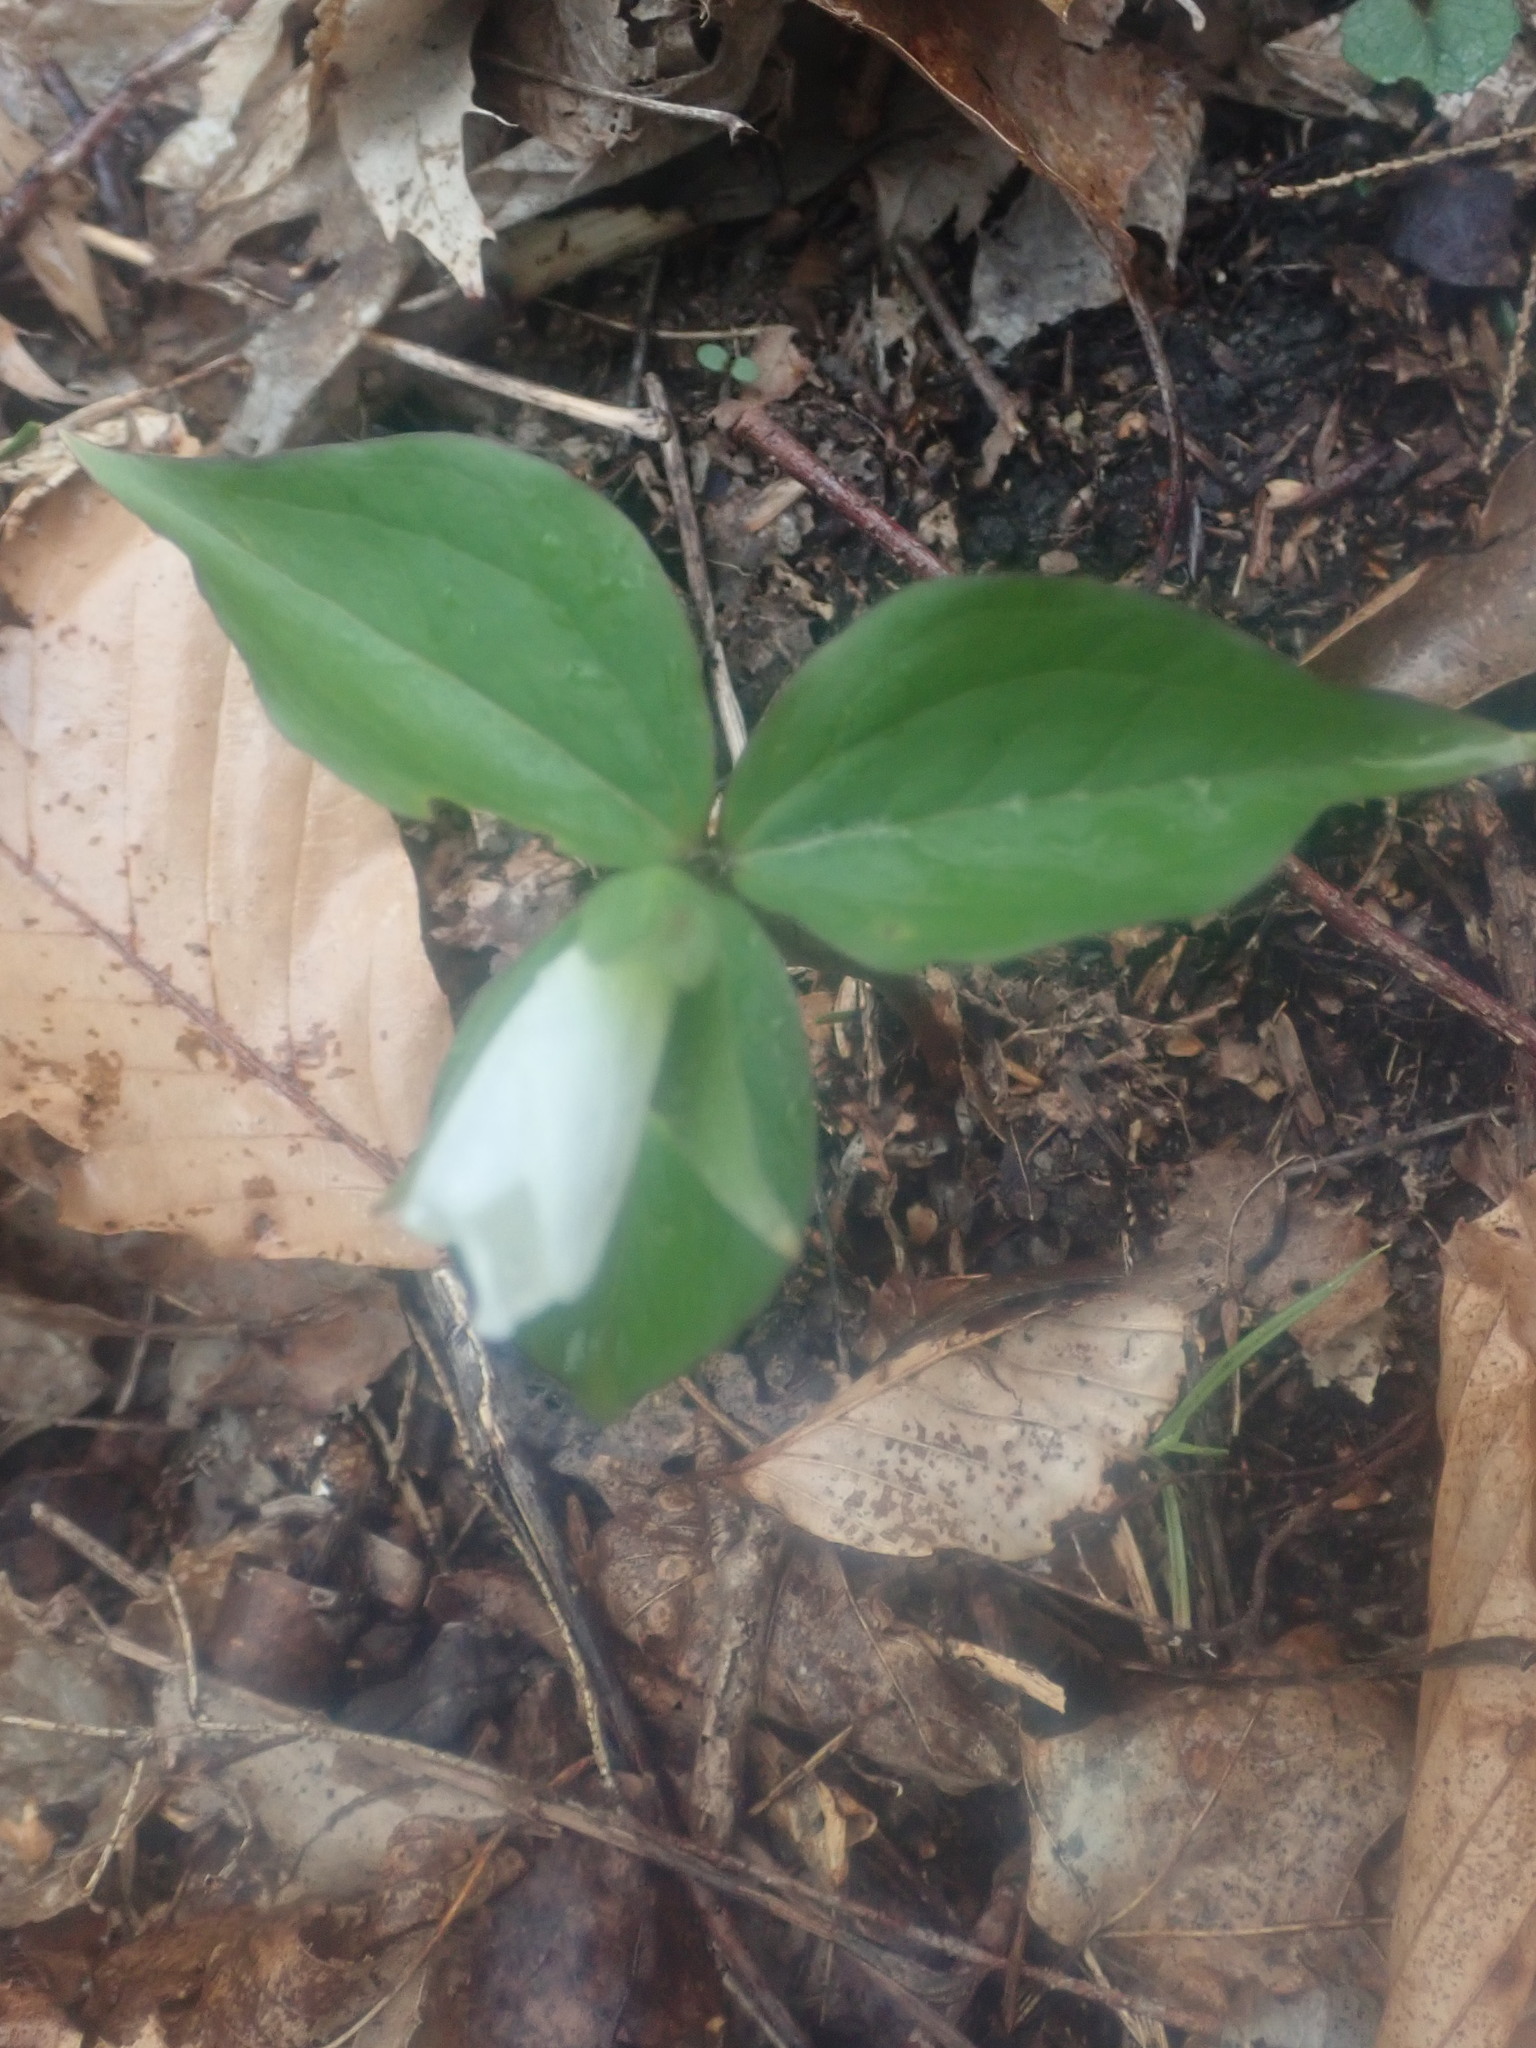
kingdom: Plantae
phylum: Tracheophyta
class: Liliopsida
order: Liliales
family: Melanthiaceae
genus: Trillium
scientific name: Trillium grandiflorum
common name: Great white trillium
